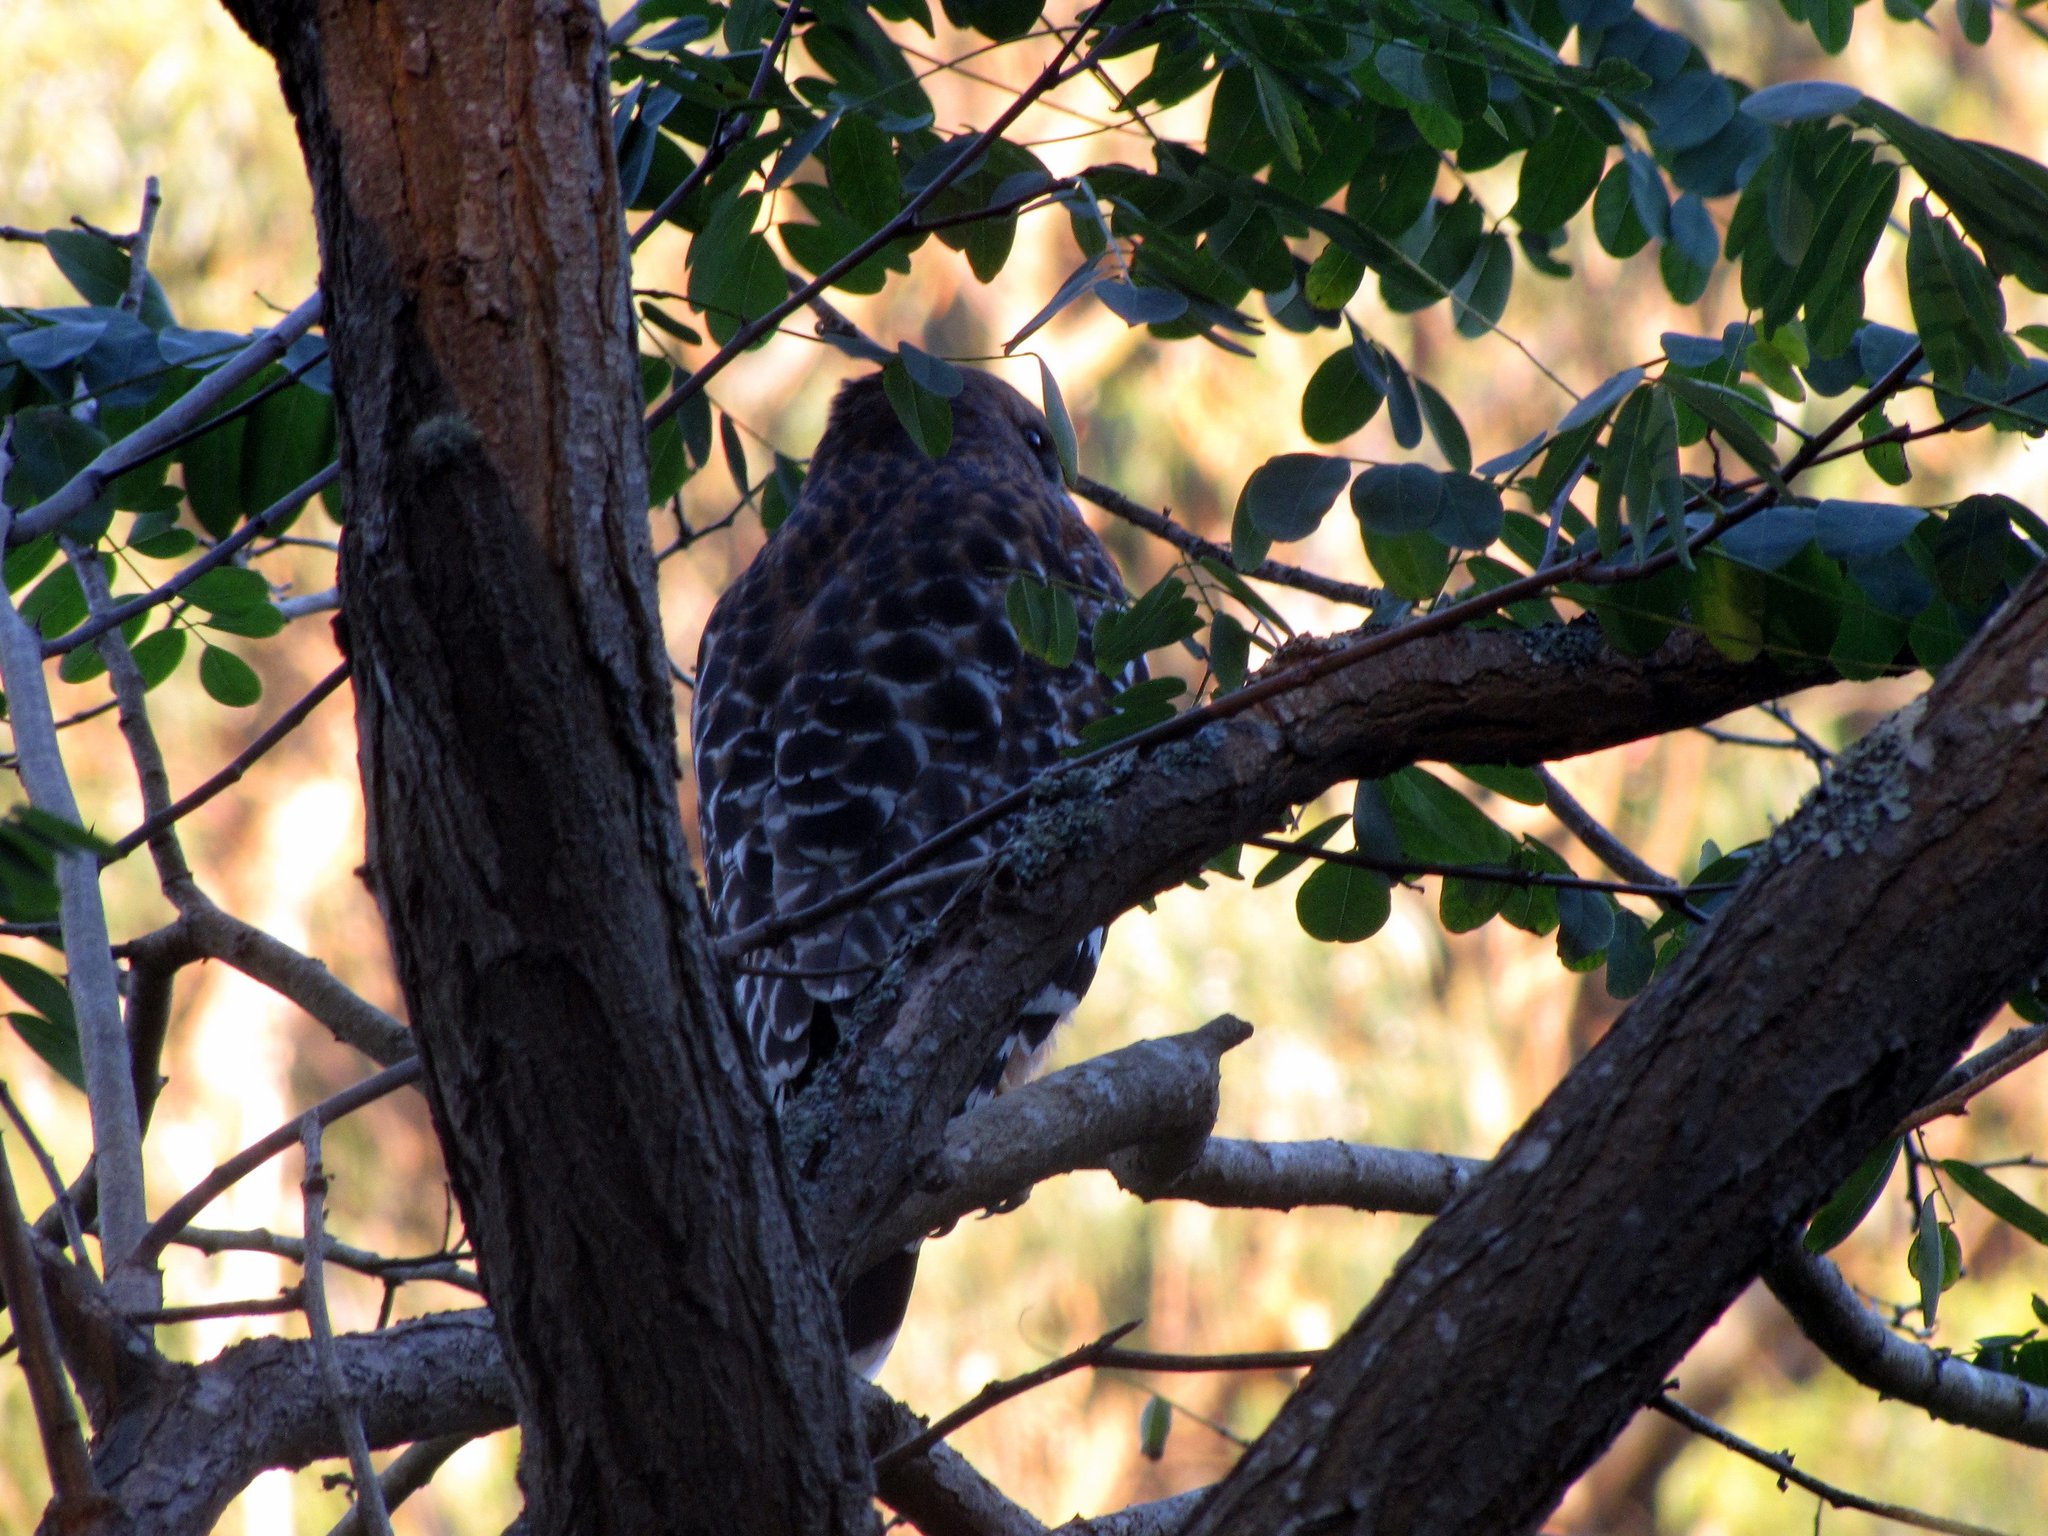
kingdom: Animalia
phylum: Chordata
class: Aves
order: Accipitriformes
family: Accipitridae
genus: Buteo
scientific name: Buteo lineatus
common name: Red-shouldered hawk
